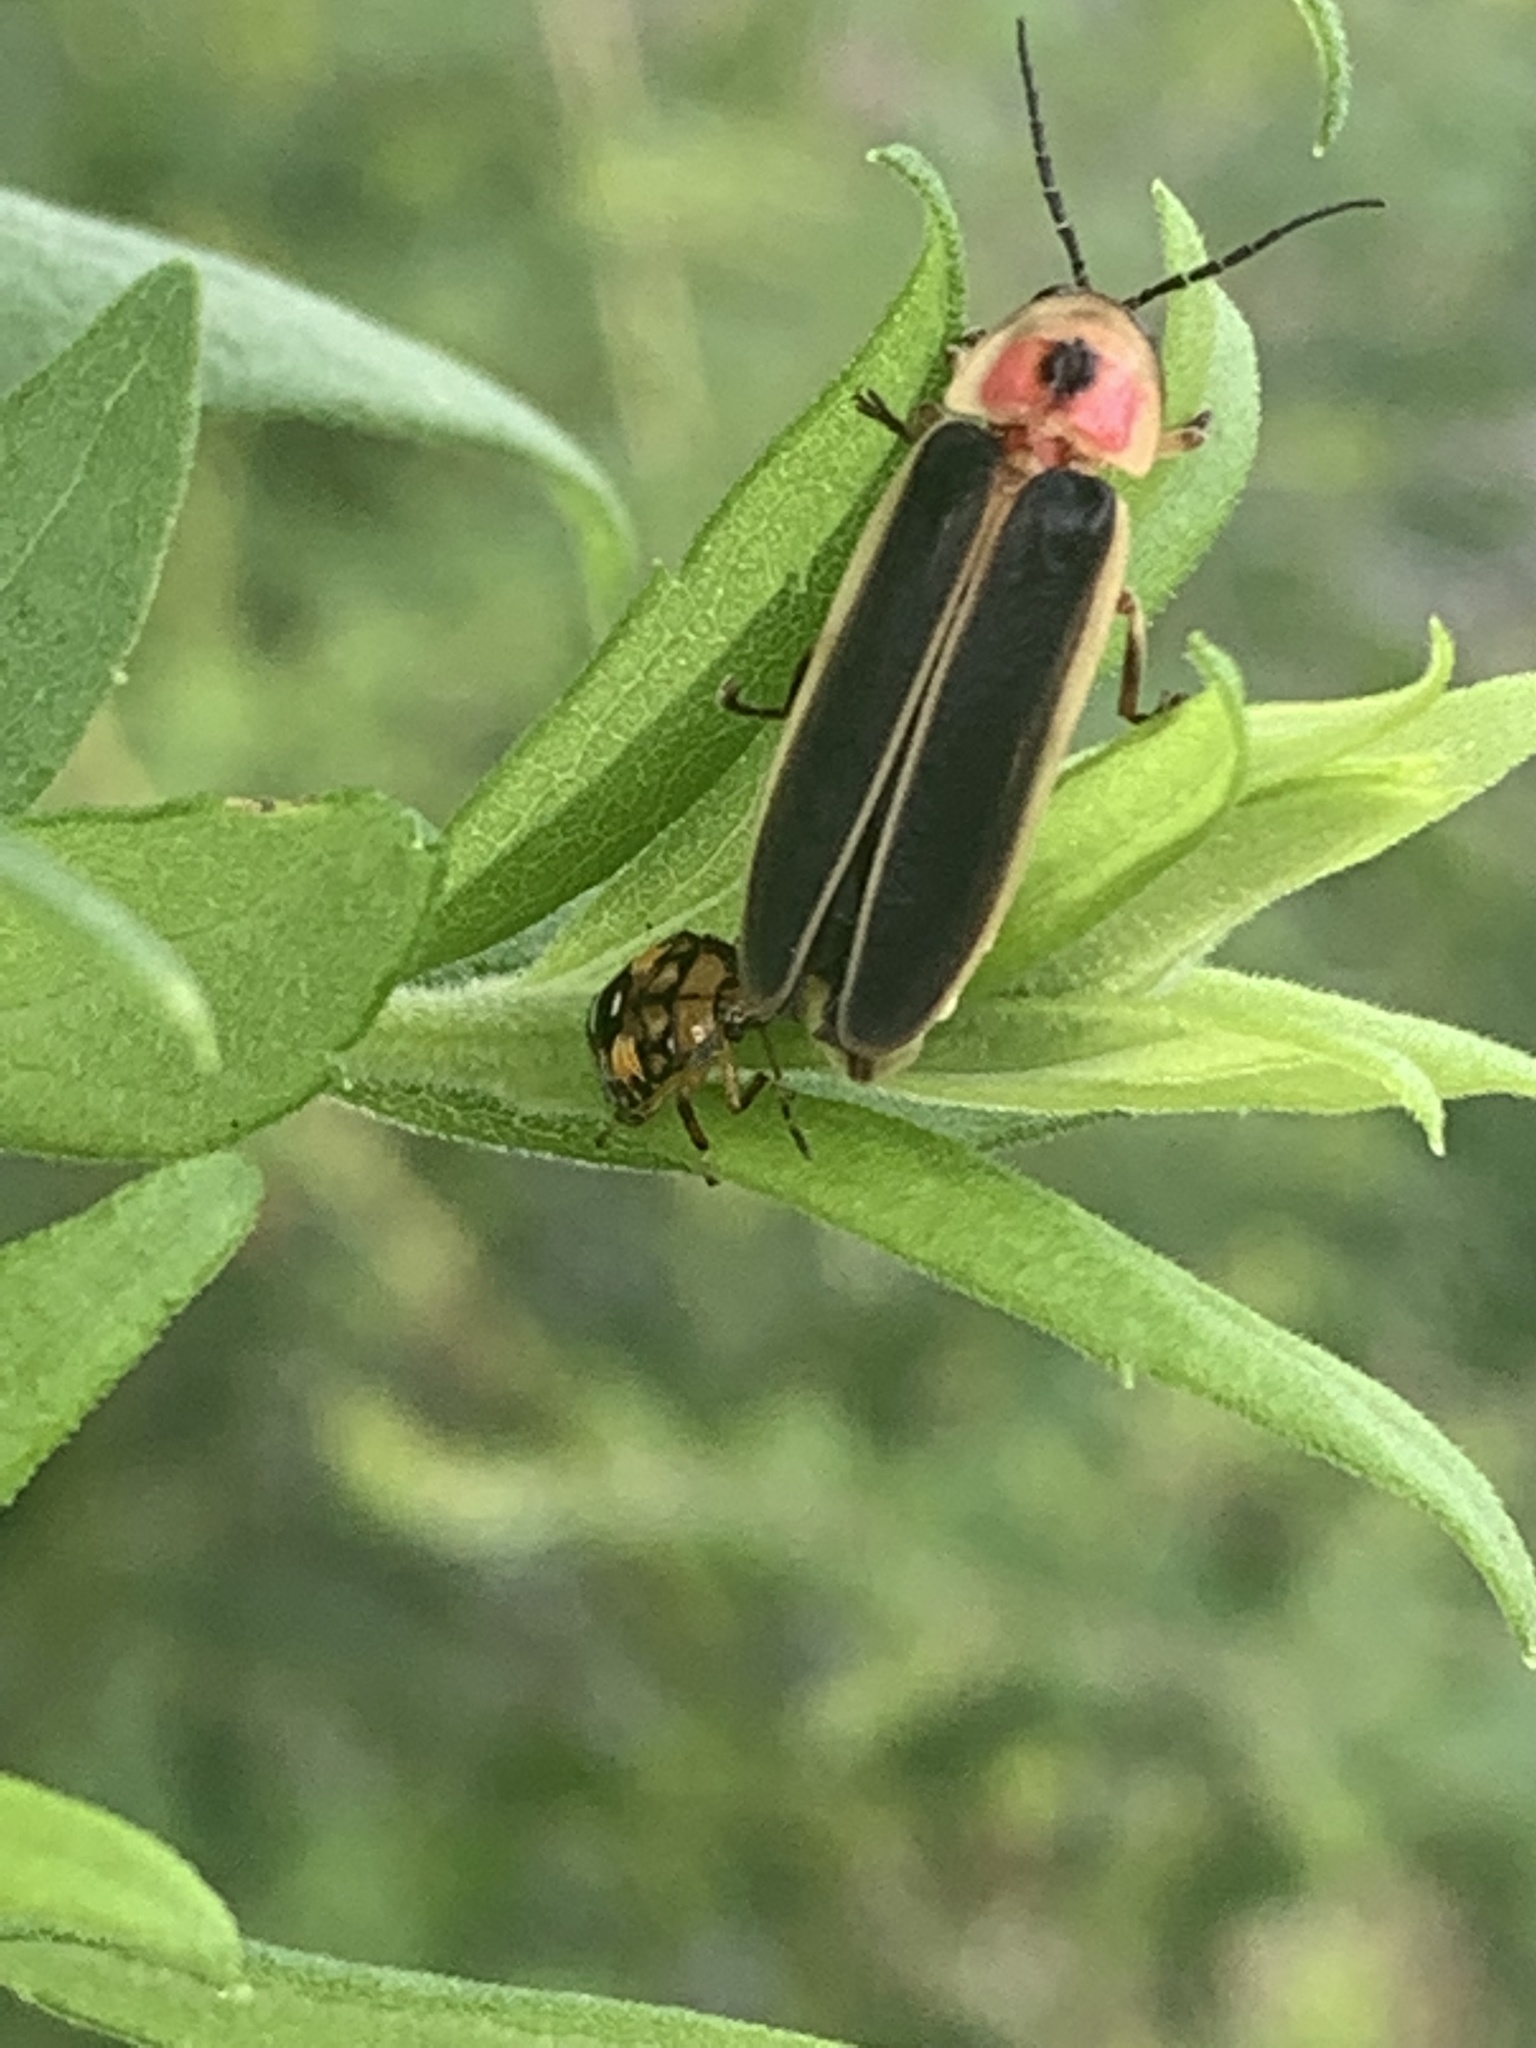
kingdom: Animalia
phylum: Arthropoda
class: Insecta
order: Coleoptera
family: Lampyridae
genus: Photinus
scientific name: Photinus pyralis
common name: Big dipper firefly
